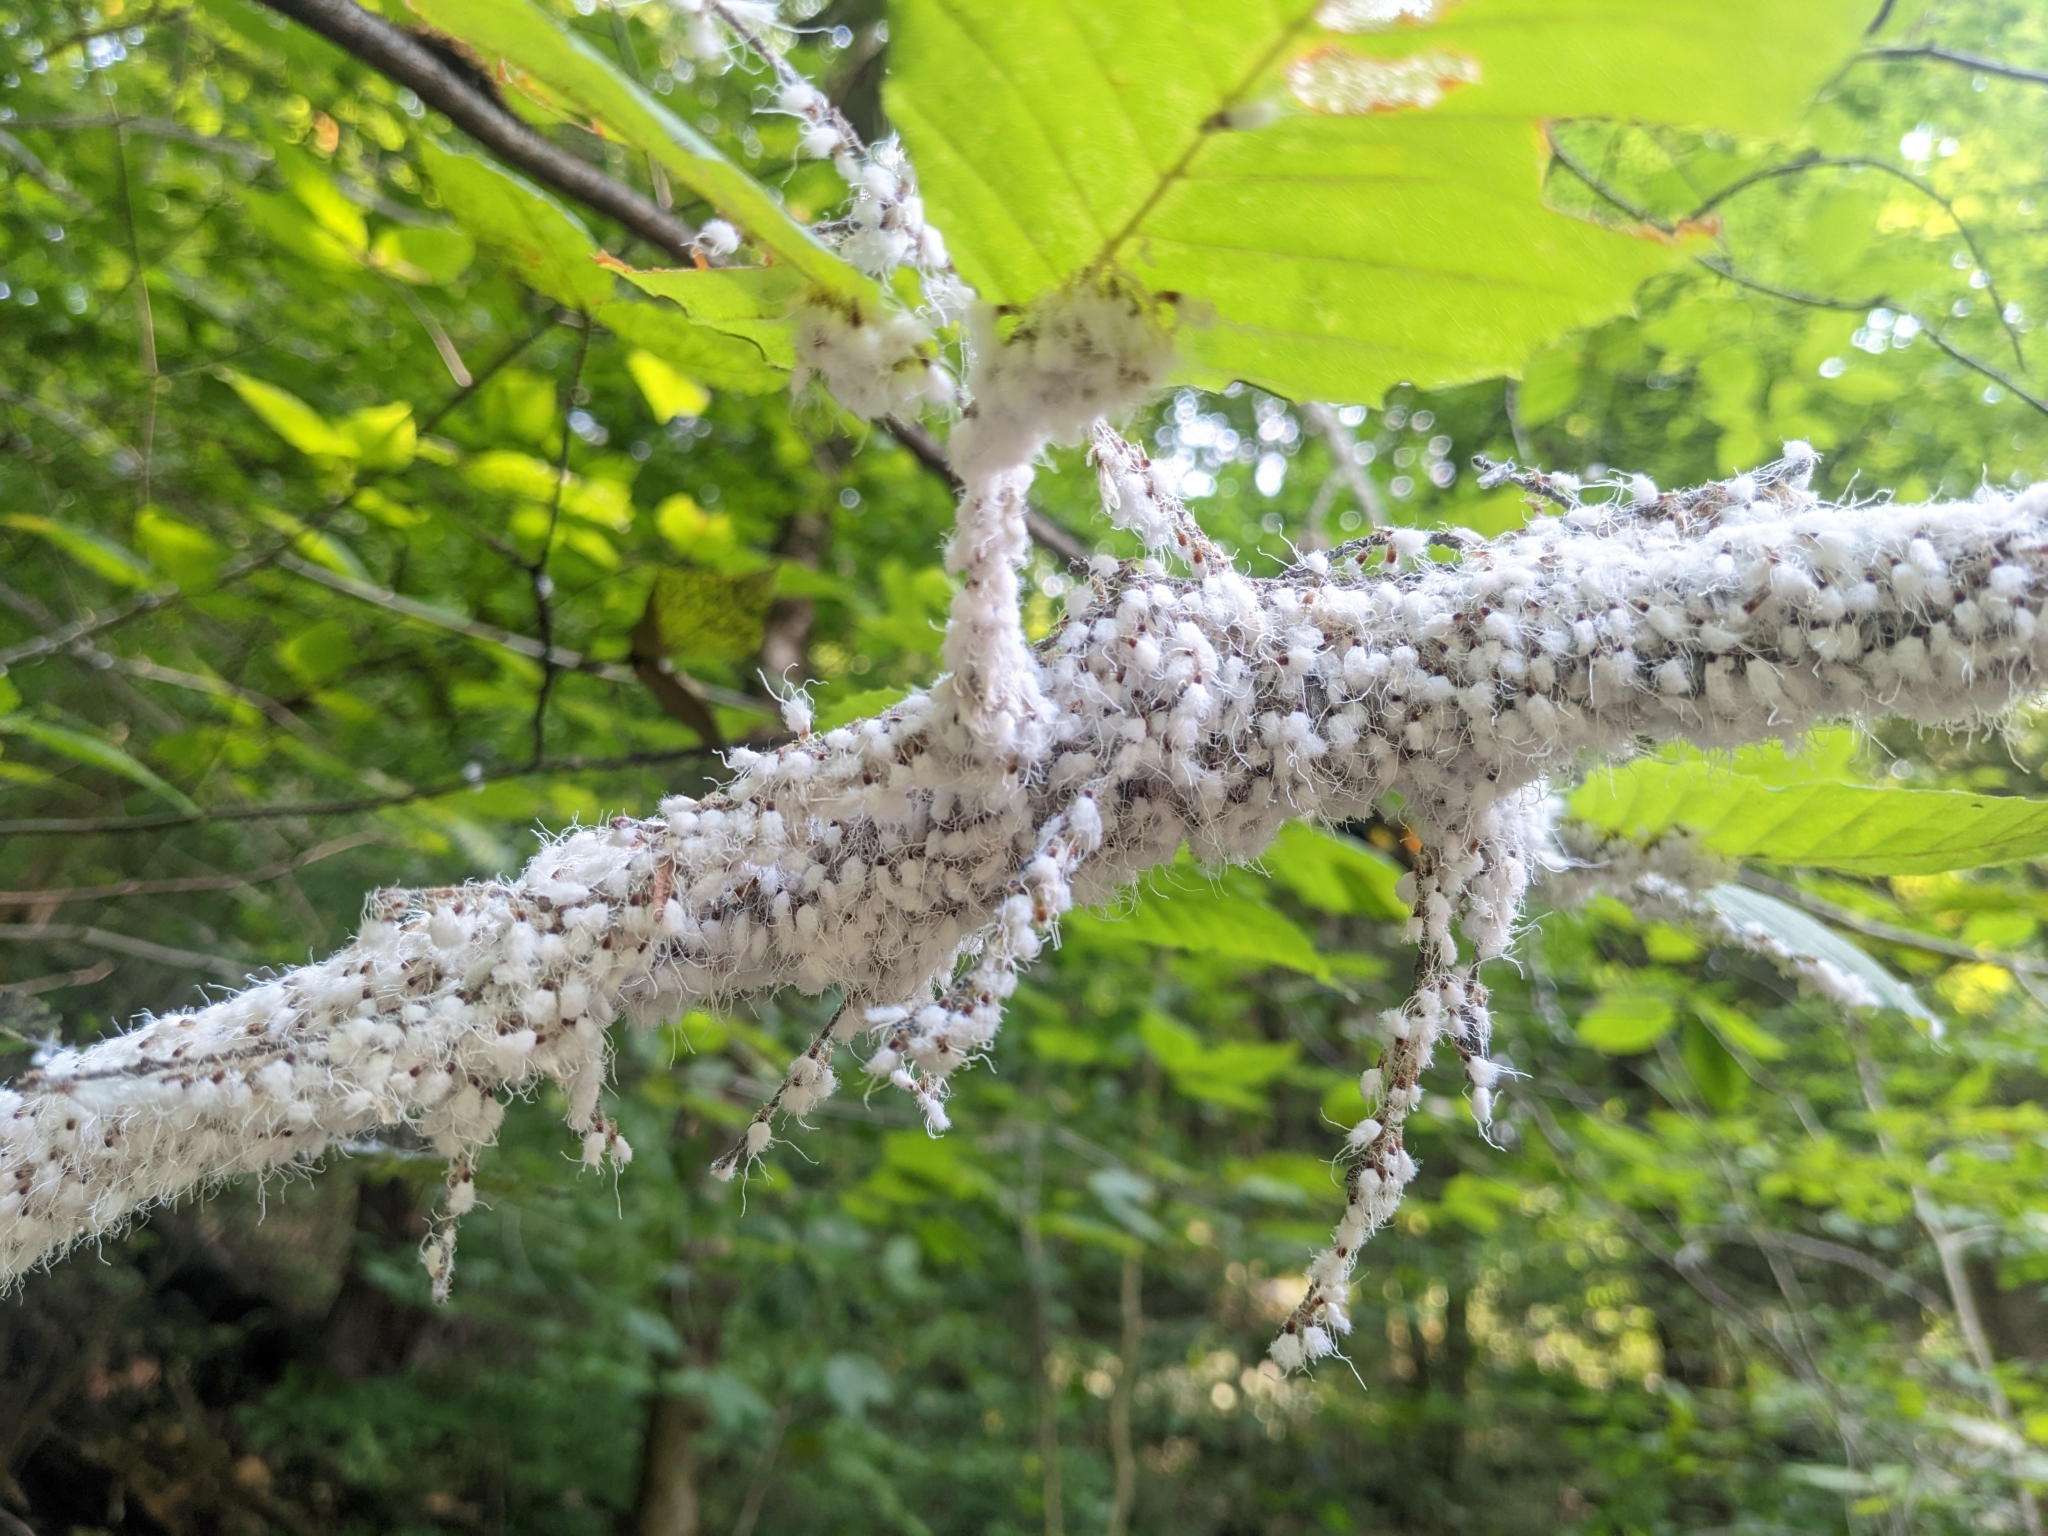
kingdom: Animalia
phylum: Arthropoda
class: Insecta
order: Hemiptera
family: Aphididae
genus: Grylloprociphilus
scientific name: Grylloprociphilus imbricator
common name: Beech blight aphid
